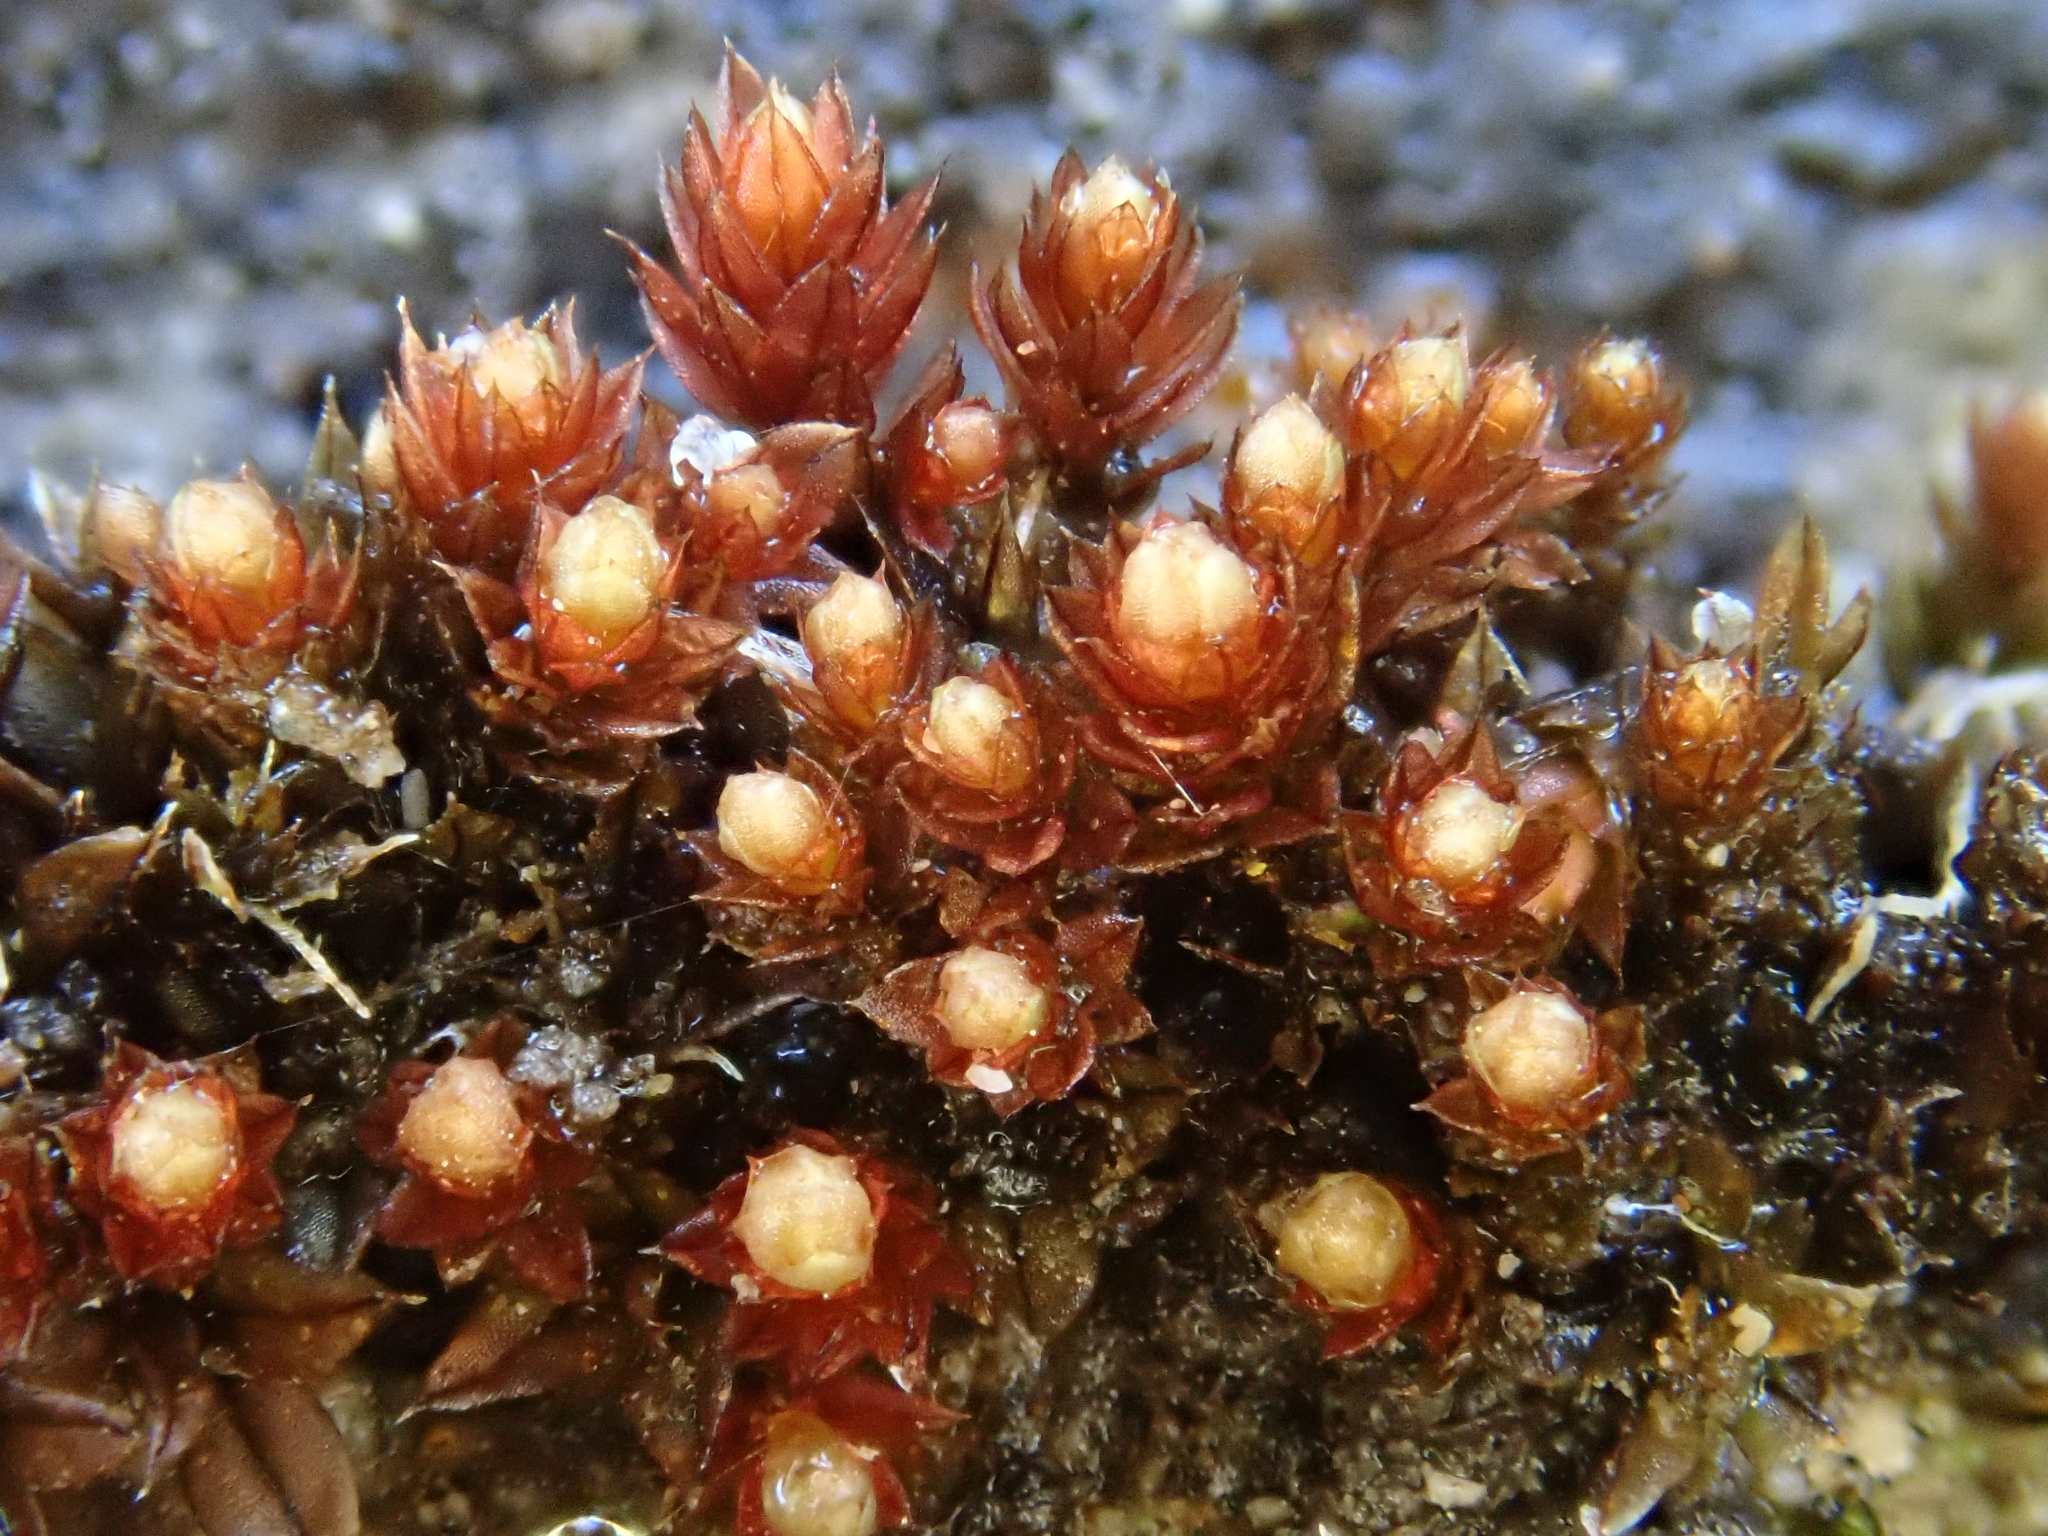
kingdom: Plantae
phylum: Bryophyta
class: Bryopsida
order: Bryales
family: Bryaceae
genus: Ptychostomum
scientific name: Ptychostomum pallens
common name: Pale thread-moss
